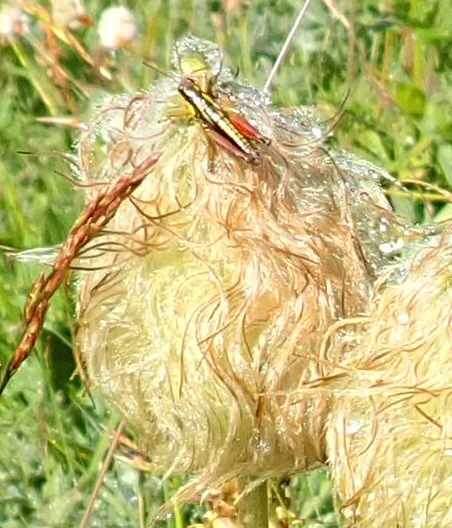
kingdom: Animalia
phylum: Arthropoda
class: Insecta
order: Orthoptera
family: Acrididae
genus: Prumnacris
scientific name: Prumnacris rainierensis
